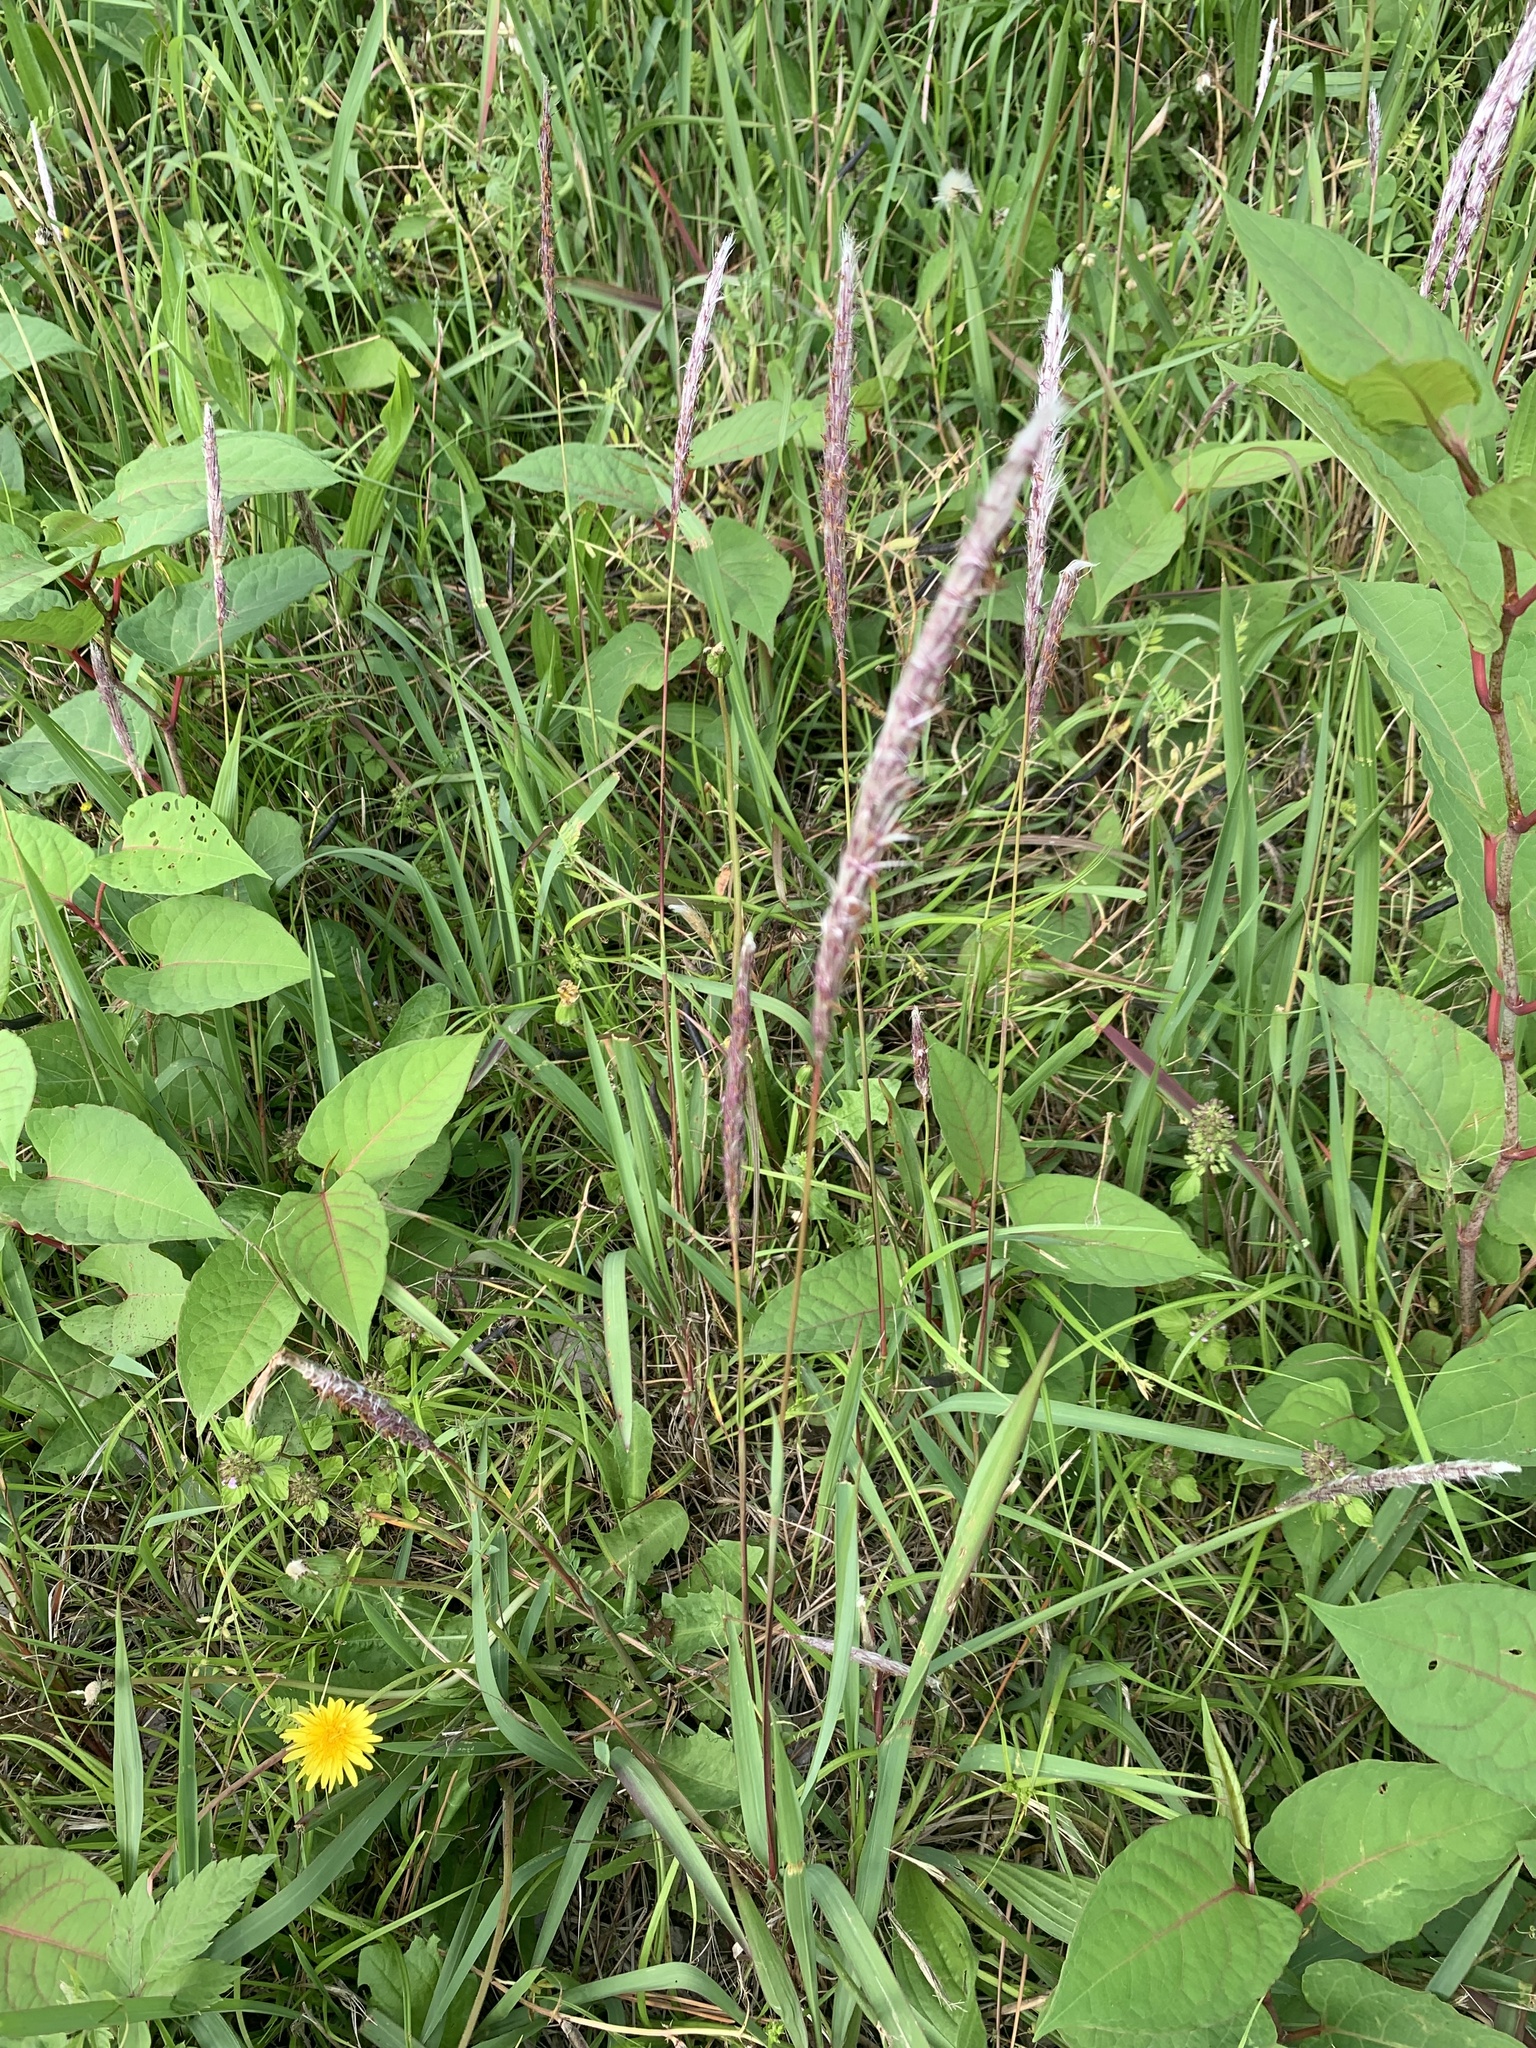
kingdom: Plantae
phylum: Tracheophyta
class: Liliopsida
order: Poales
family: Poaceae
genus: Imperata
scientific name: Imperata cylindrica
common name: Cogongrass
